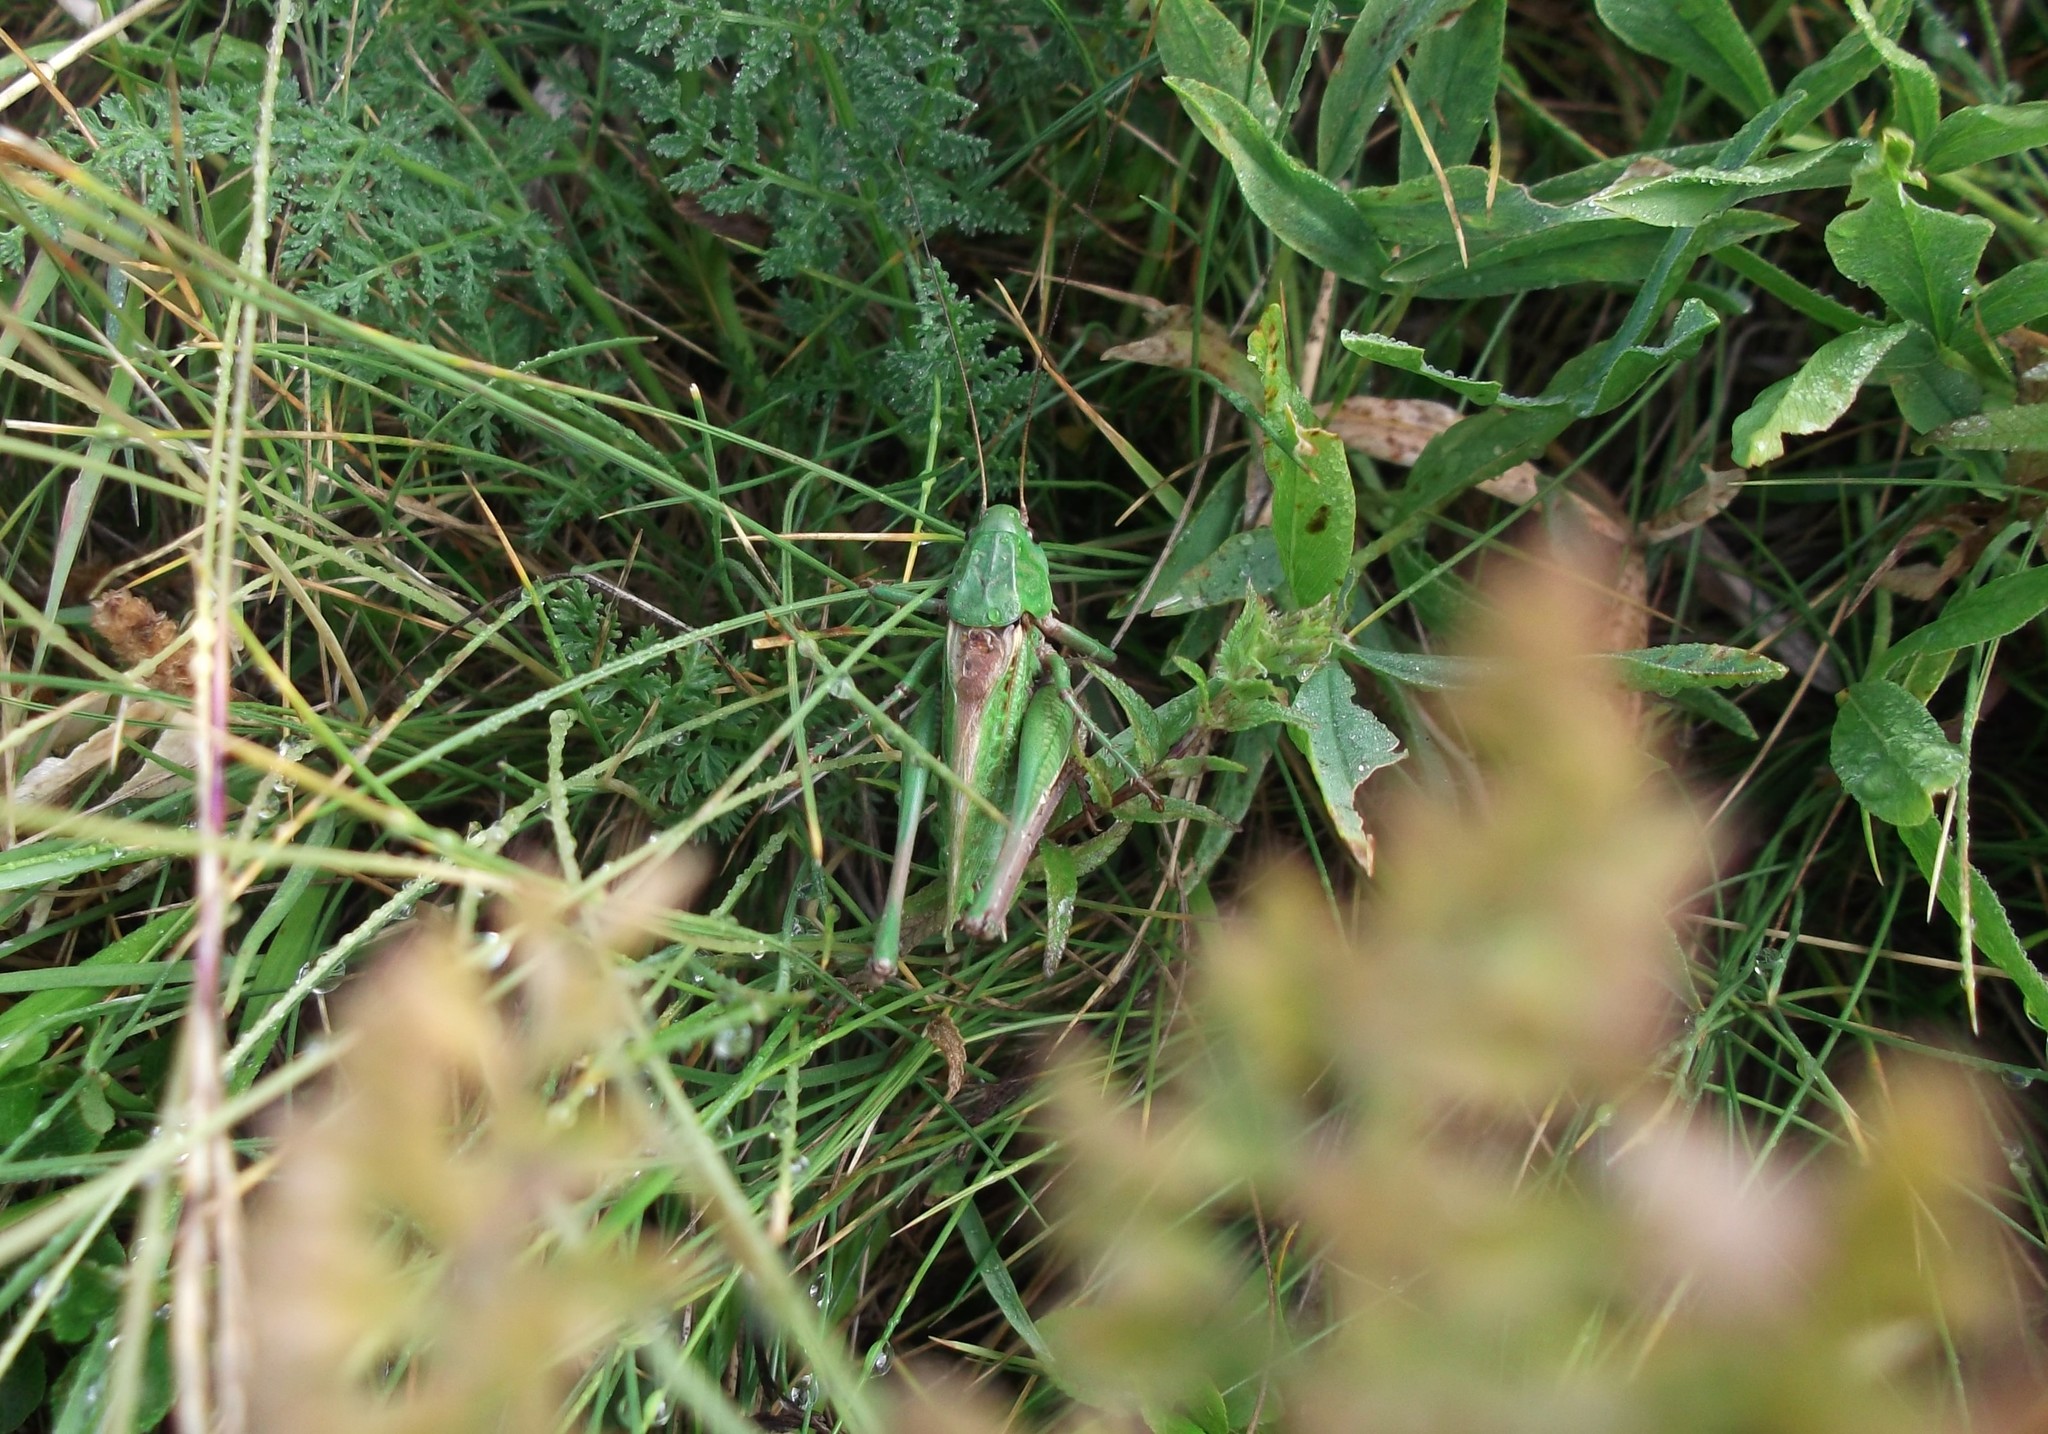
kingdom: Animalia
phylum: Arthropoda
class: Insecta
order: Orthoptera
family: Tettigoniidae
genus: Decticus
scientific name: Decticus verrucivorus
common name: Wart-biter
